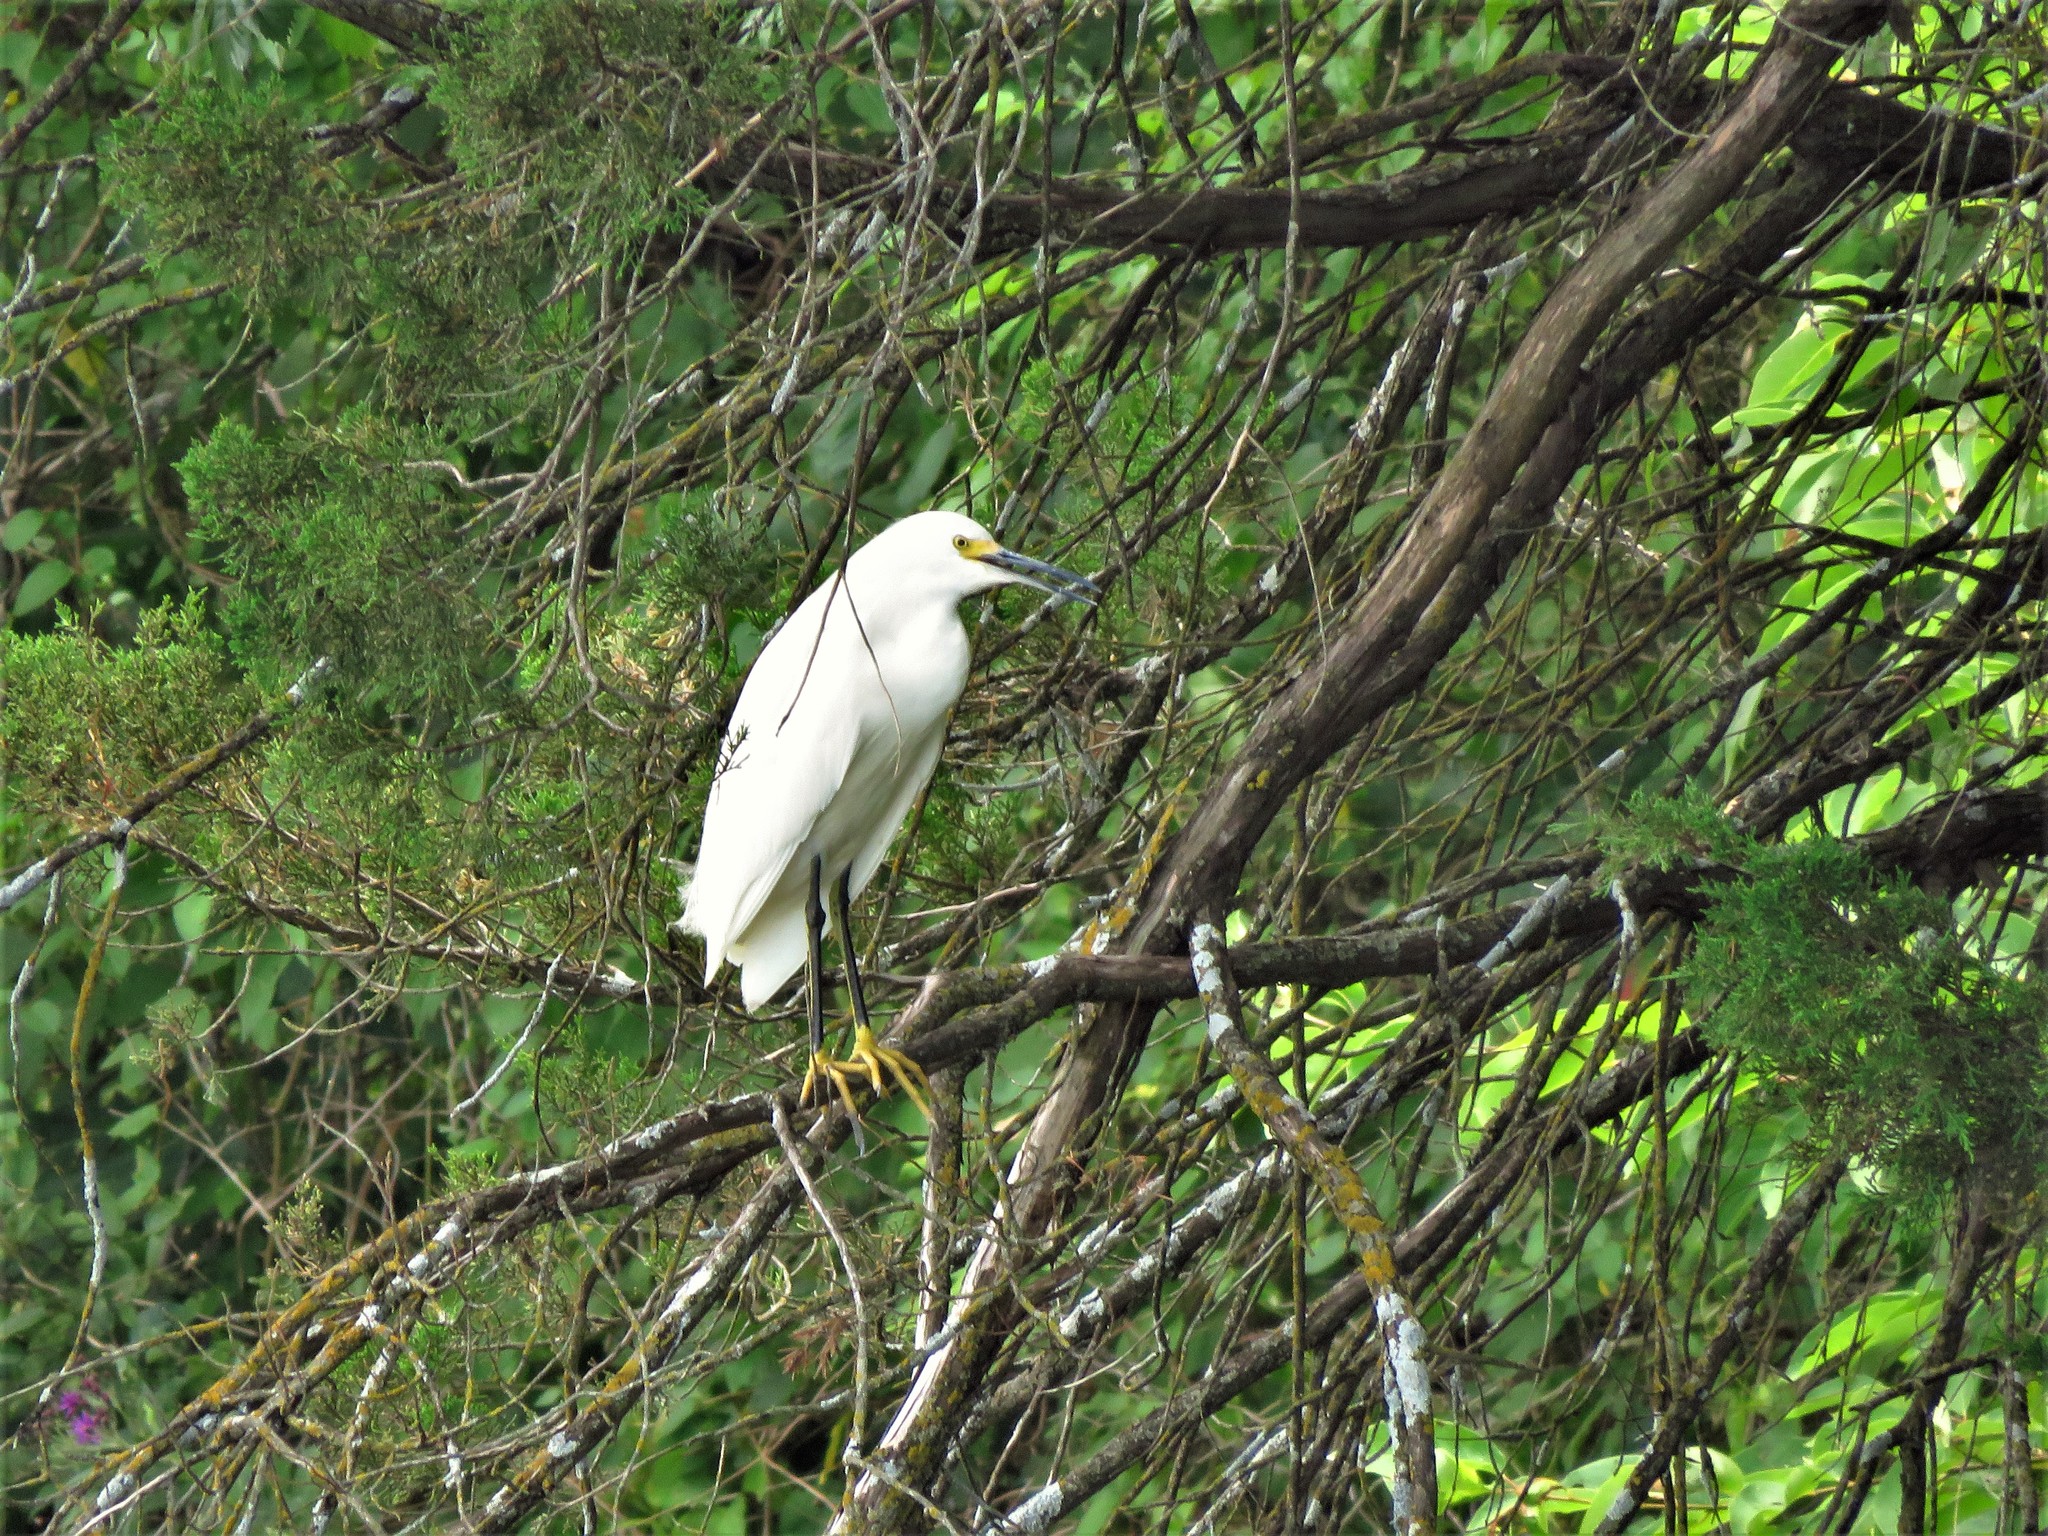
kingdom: Animalia
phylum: Chordata
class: Aves
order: Pelecaniformes
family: Ardeidae
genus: Egretta
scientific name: Egretta thula
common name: Snowy egret
